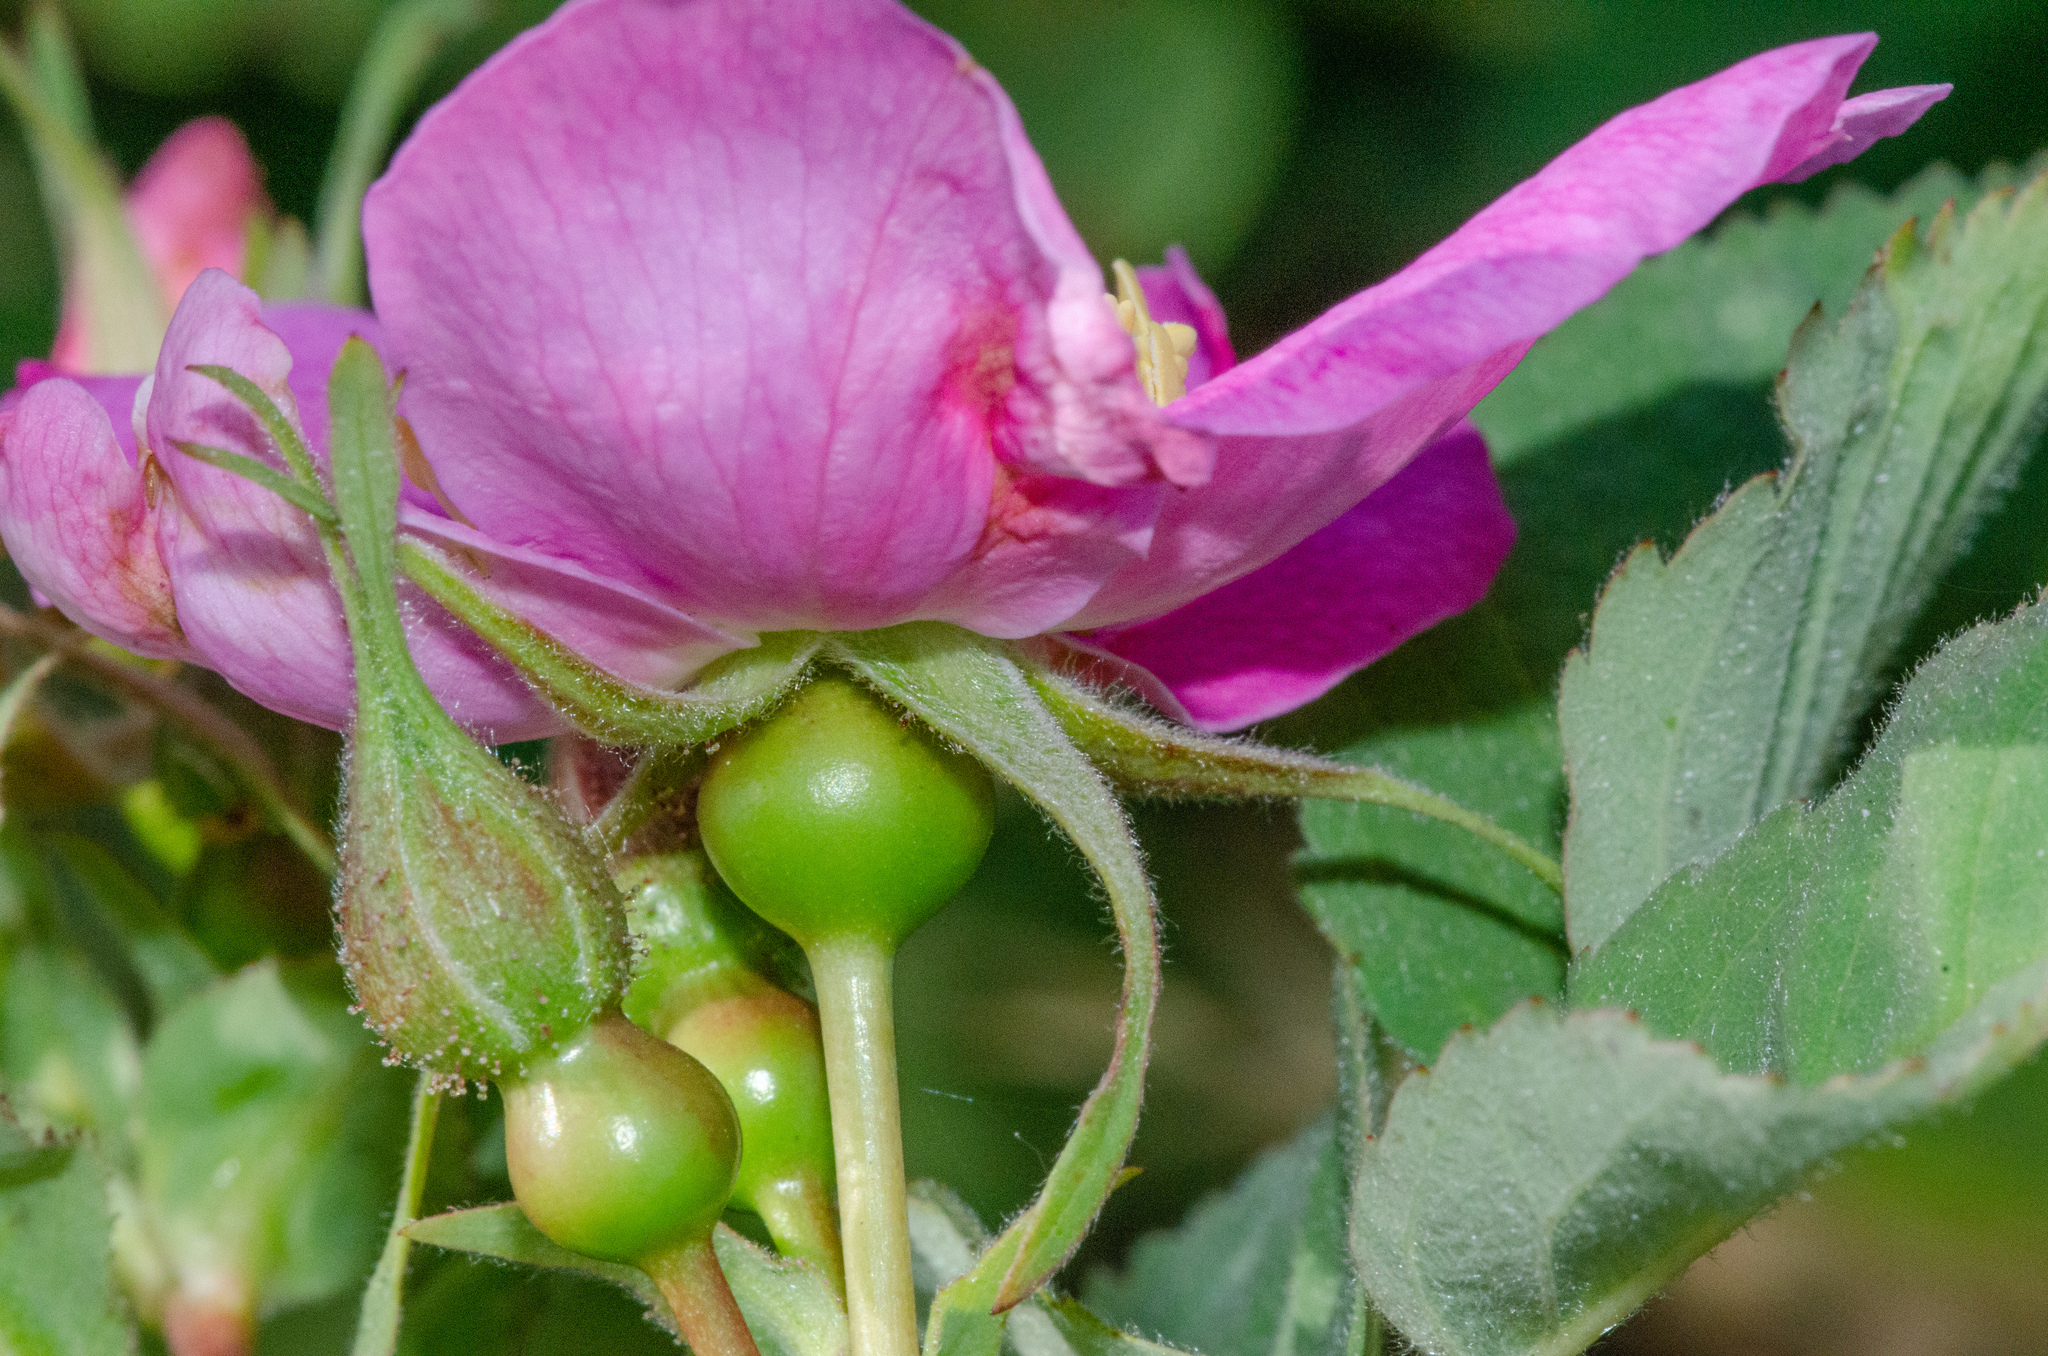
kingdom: Plantae
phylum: Tracheophyta
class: Magnoliopsida
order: Rosales
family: Rosaceae
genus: Rosa
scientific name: Rosa pisocarpa
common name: Cluster rose
